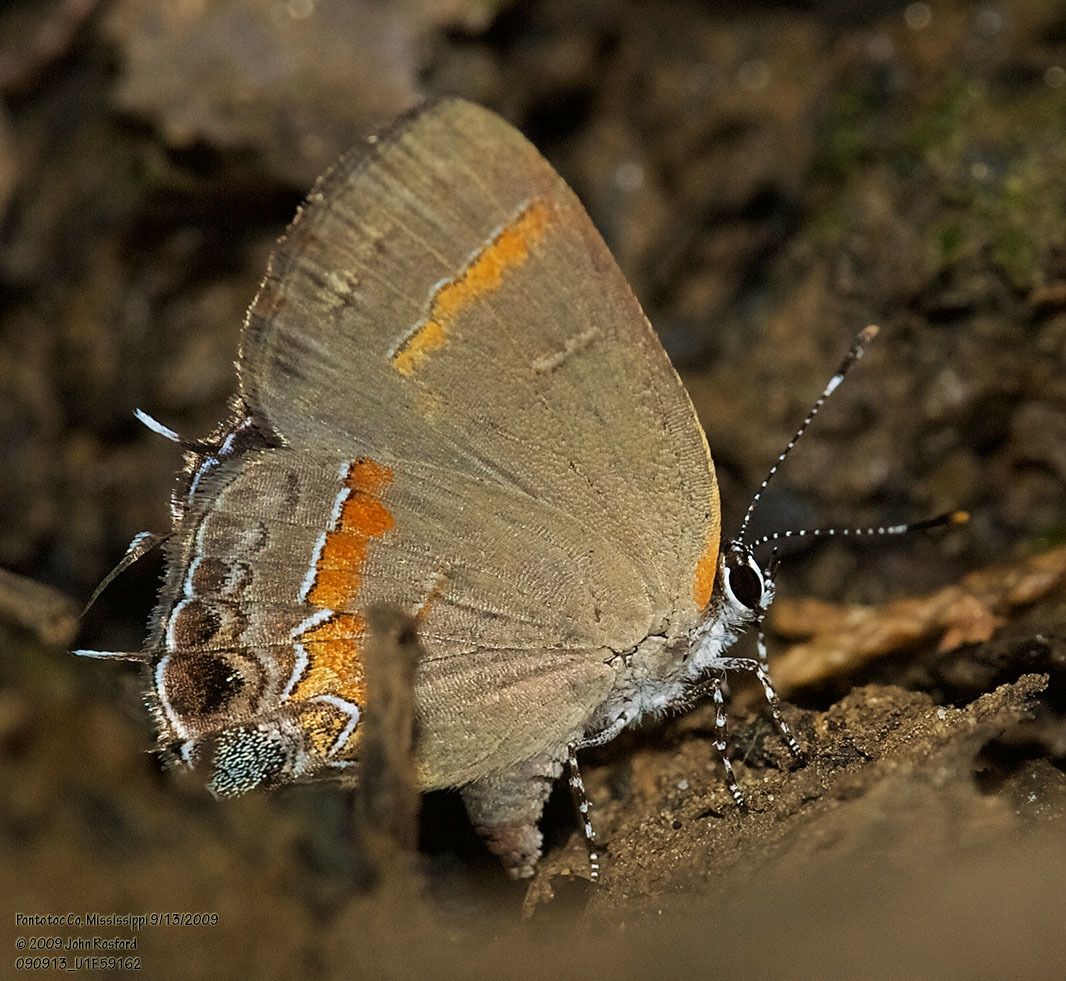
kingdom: Animalia
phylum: Arthropoda
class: Insecta
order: Lepidoptera
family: Lycaenidae
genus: Calycopis
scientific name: Calycopis cecrops
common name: Red-banded hairstreak
